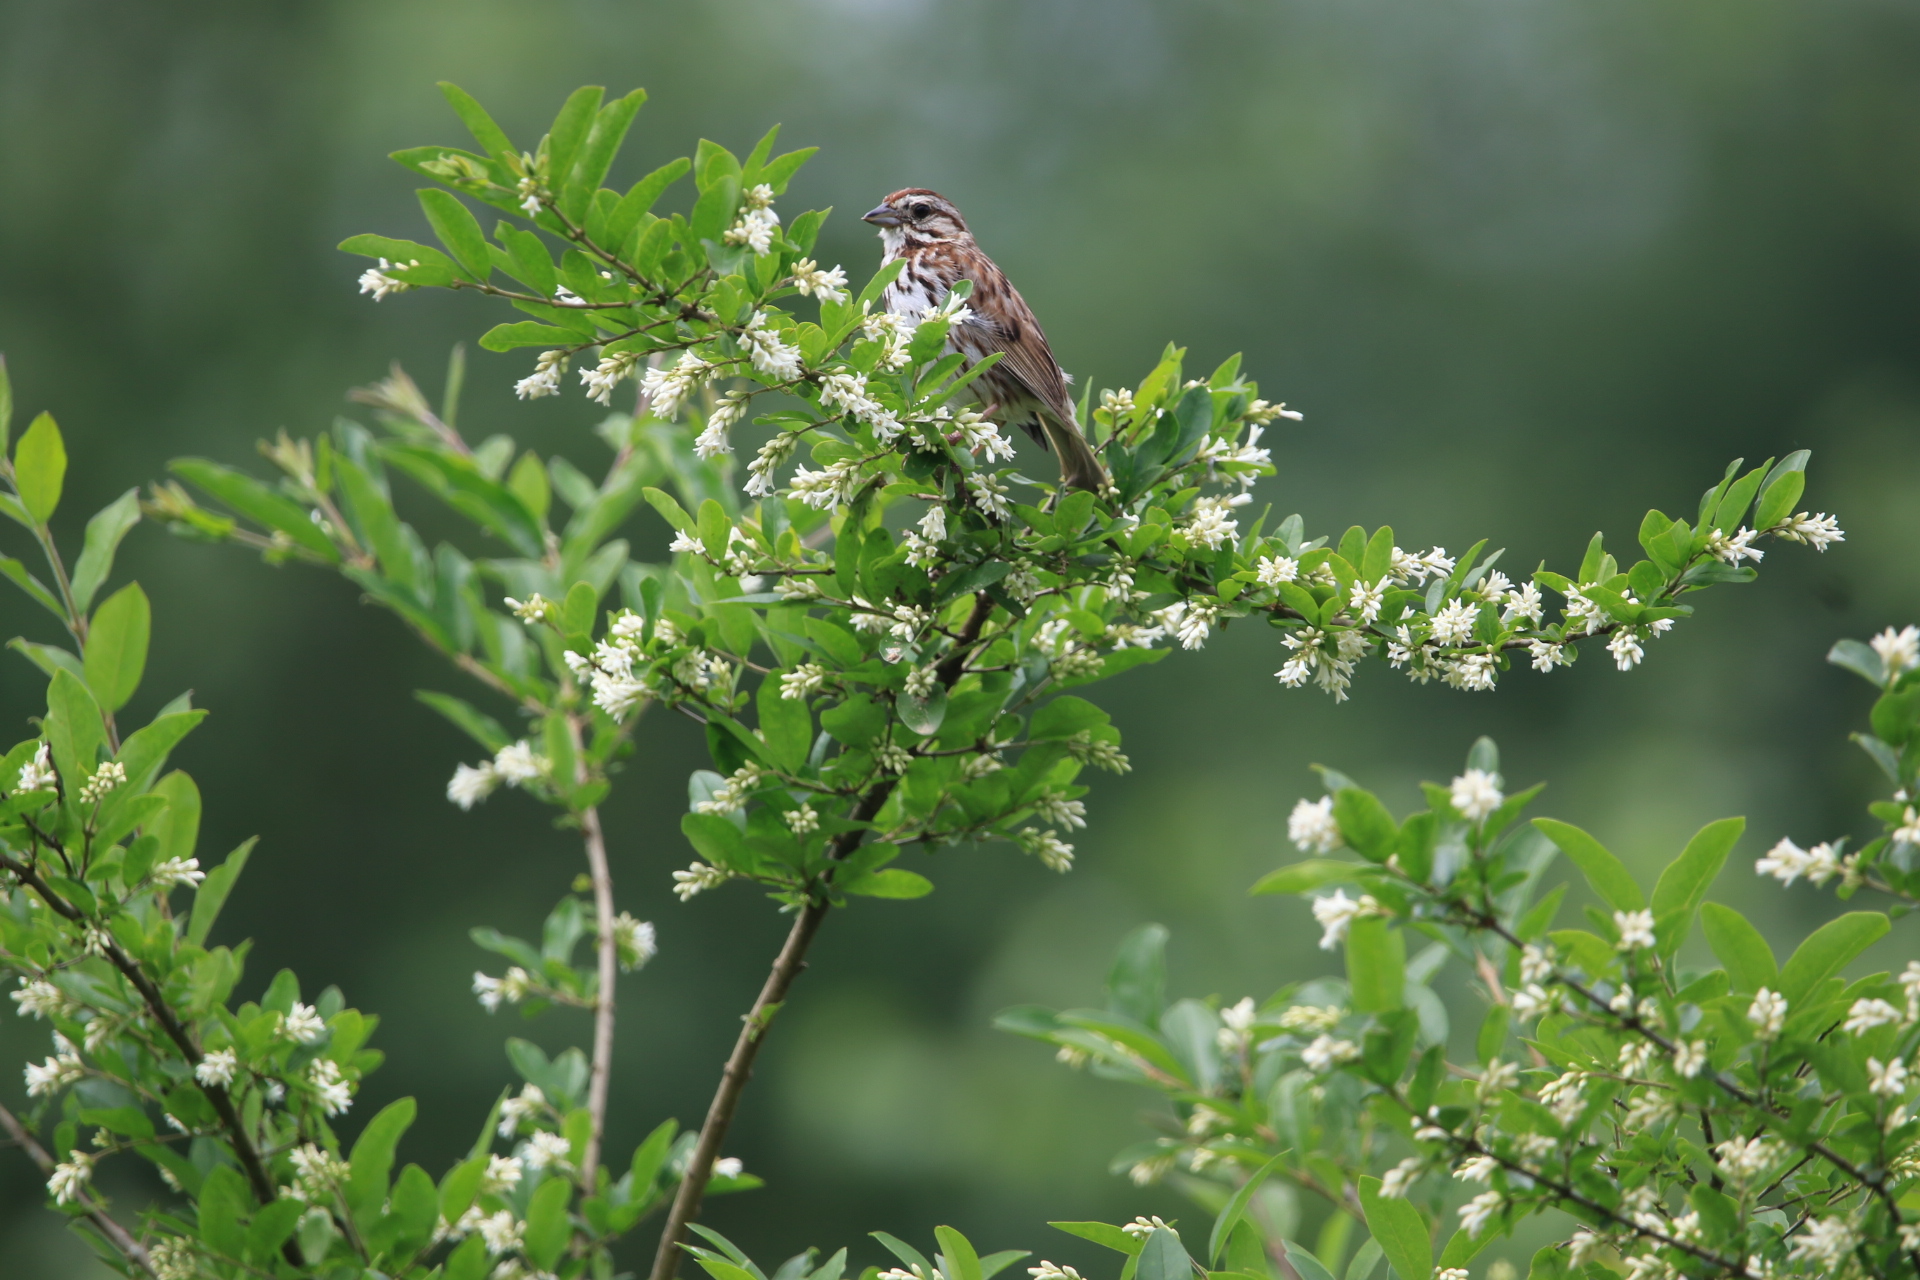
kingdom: Animalia
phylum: Chordata
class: Aves
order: Passeriformes
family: Passerellidae
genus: Melospiza
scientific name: Melospiza melodia
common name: Song sparrow
